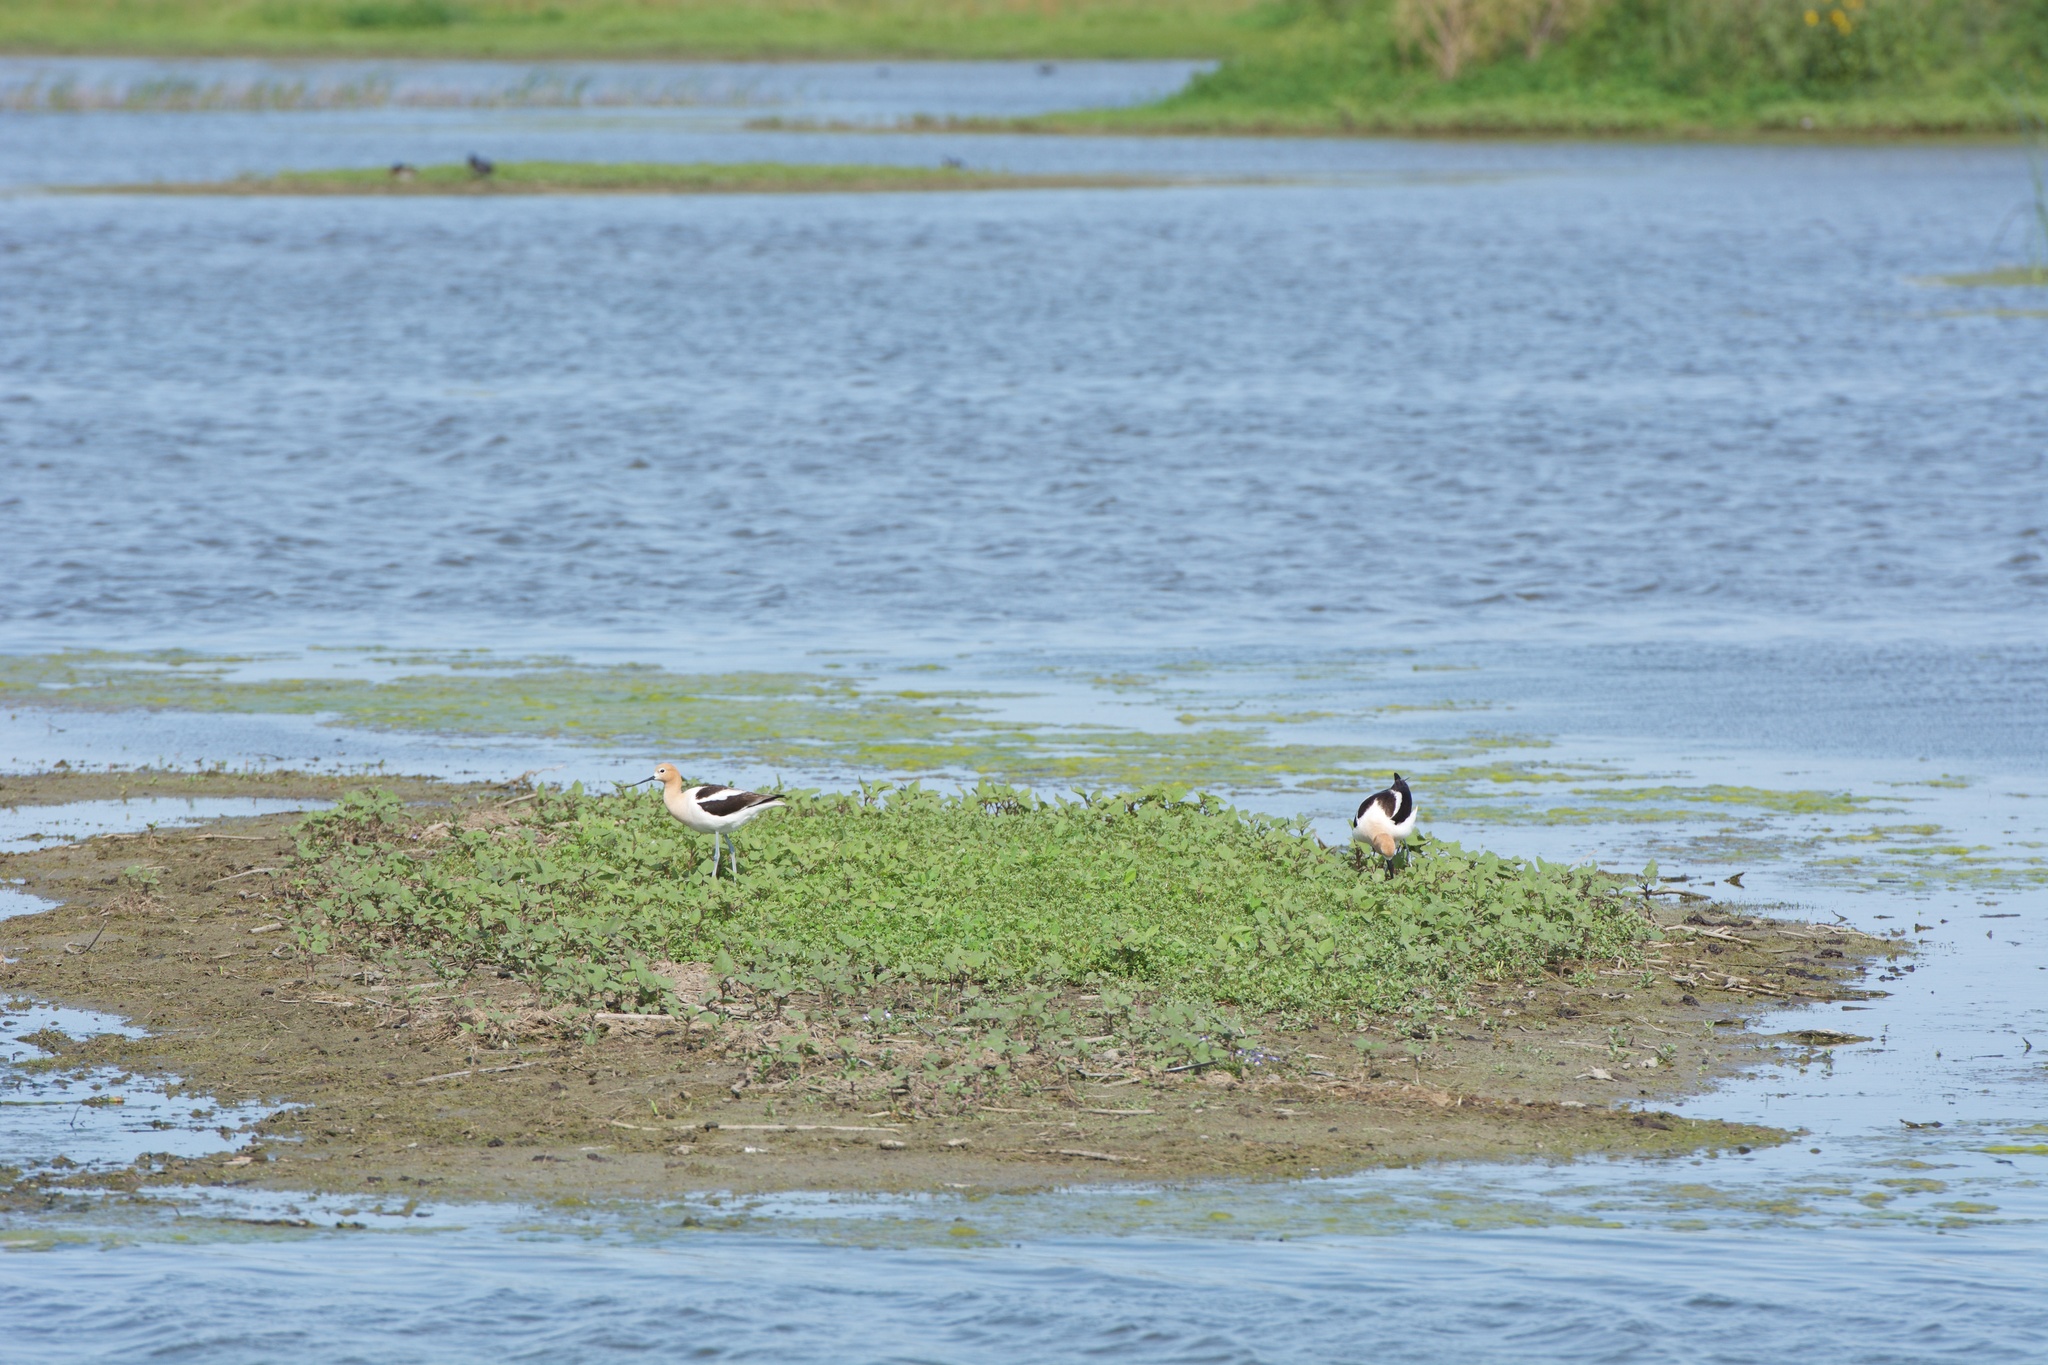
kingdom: Animalia
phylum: Chordata
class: Aves
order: Charadriiformes
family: Recurvirostridae
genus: Recurvirostra
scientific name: Recurvirostra americana
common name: American avocet
